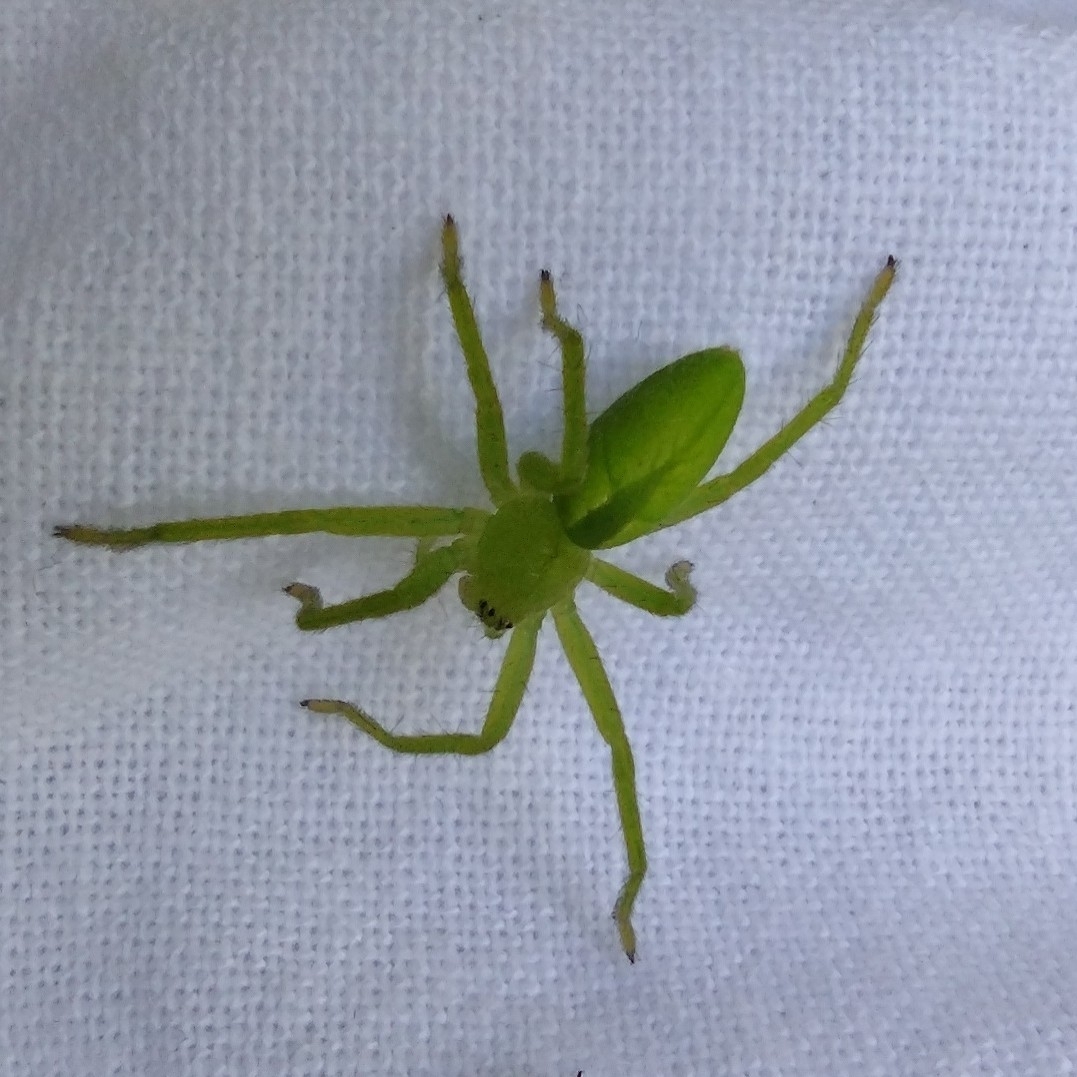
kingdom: Animalia
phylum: Arthropoda
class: Arachnida
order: Araneae
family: Sparassidae
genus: Micrommata
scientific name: Micrommata virescens
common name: Green spider
